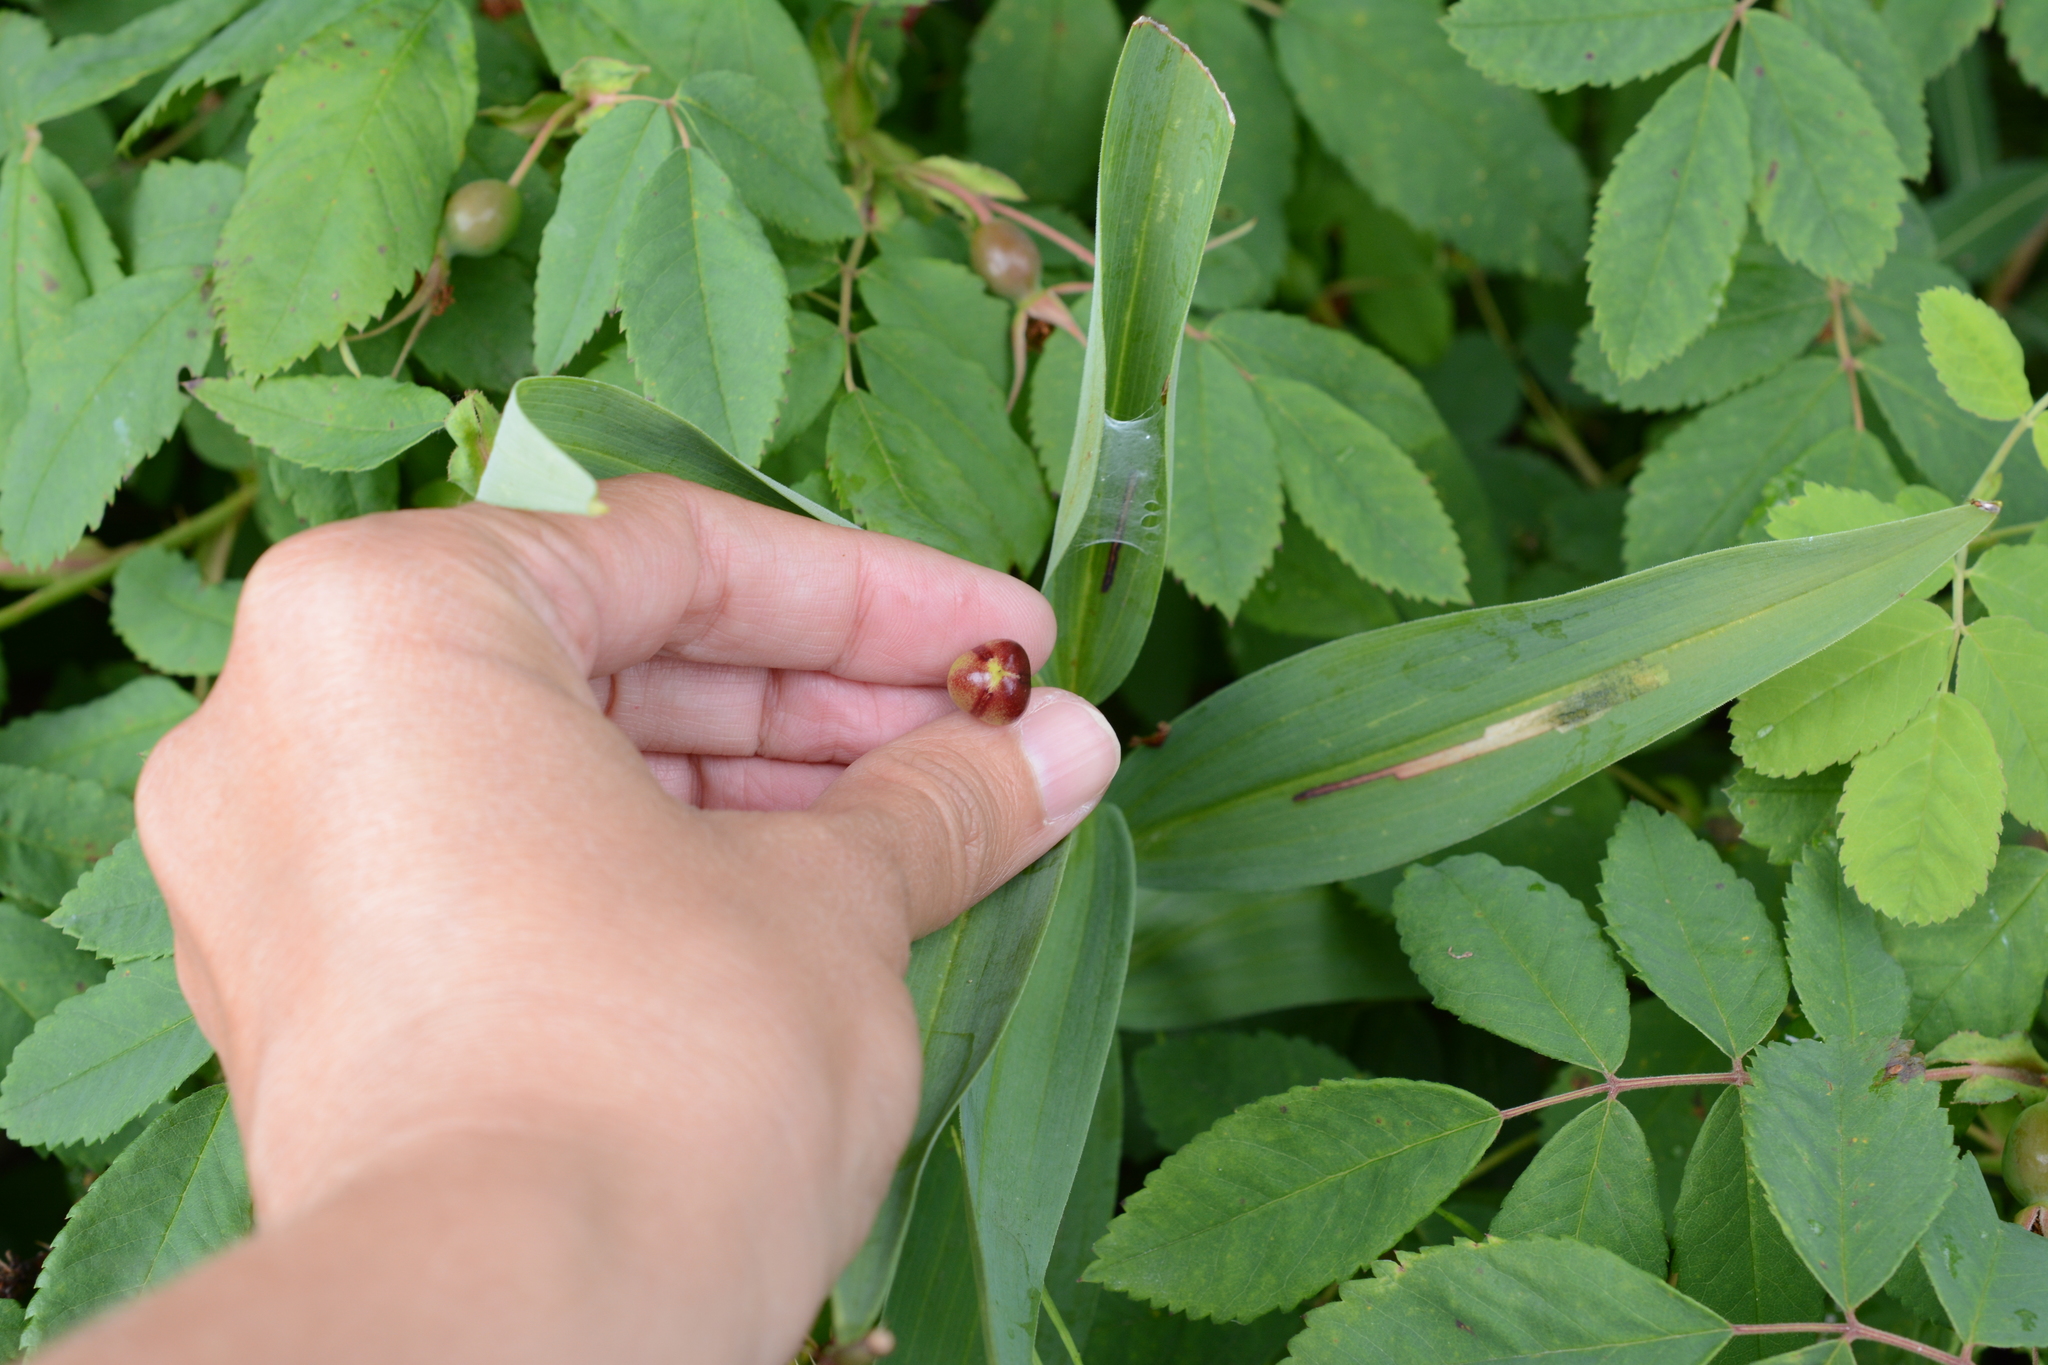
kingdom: Plantae
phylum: Tracheophyta
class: Liliopsida
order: Asparagales
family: Asparagaceae
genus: Maianthemum
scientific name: Maianthemum stellatum
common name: Little false solomon's seal
